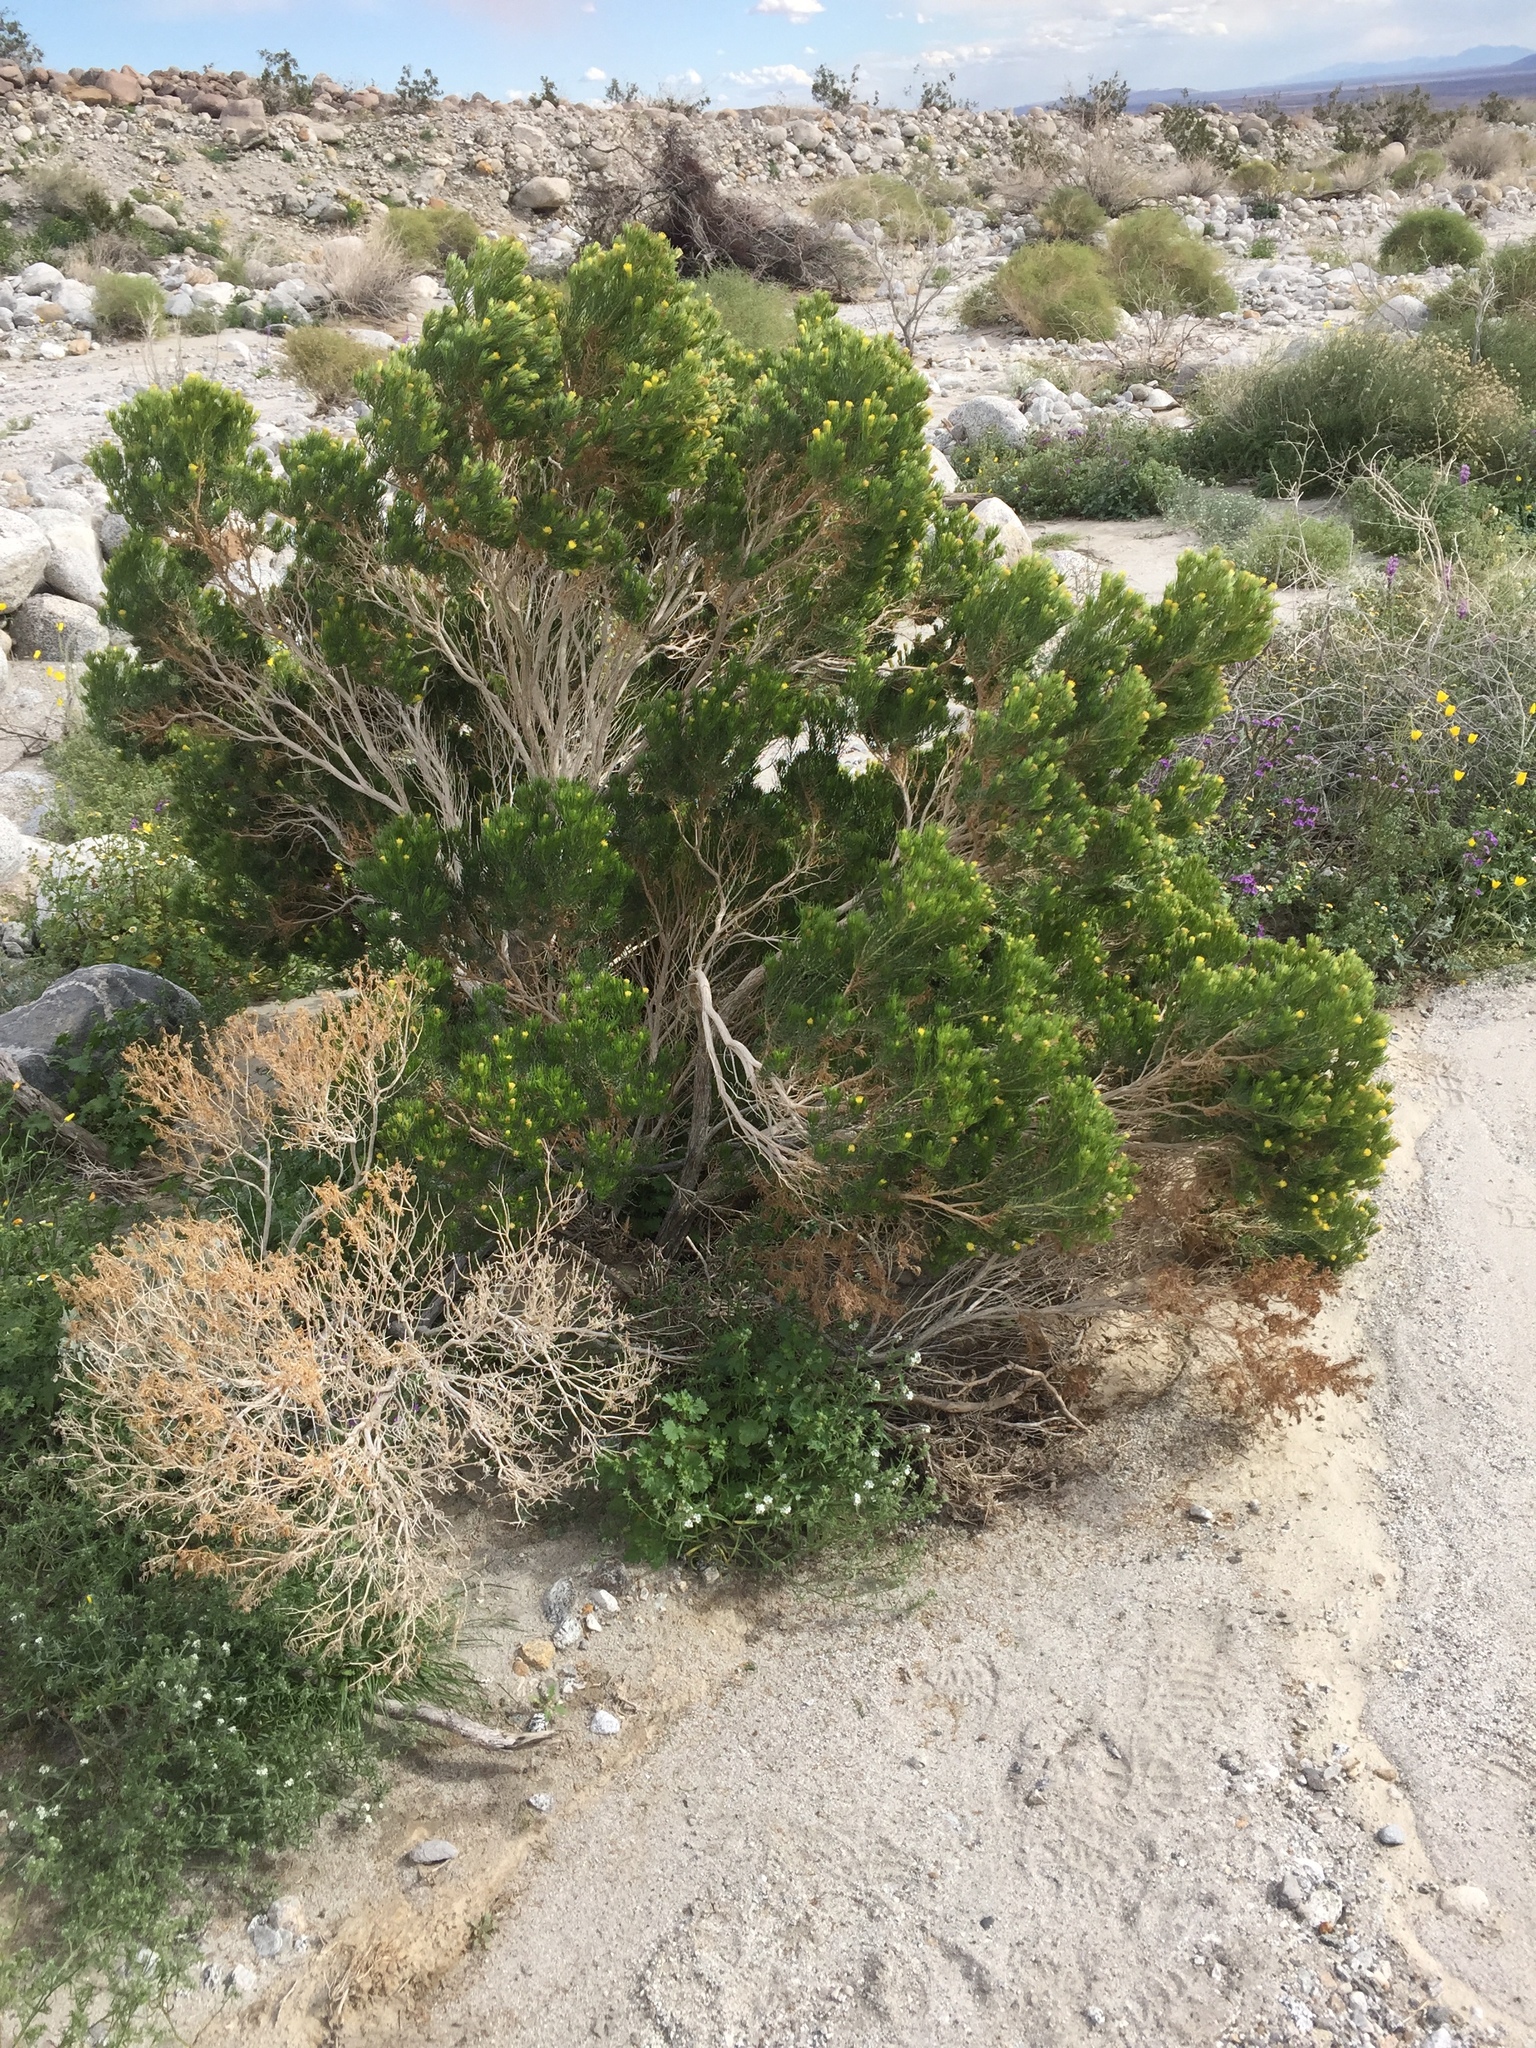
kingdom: Plantae
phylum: Tracheophyta
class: Magnoliopsida
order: Asterales
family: Asteraceae
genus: Peucephyllum
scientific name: Peucephyllum schottii
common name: Pygmy-cedar
